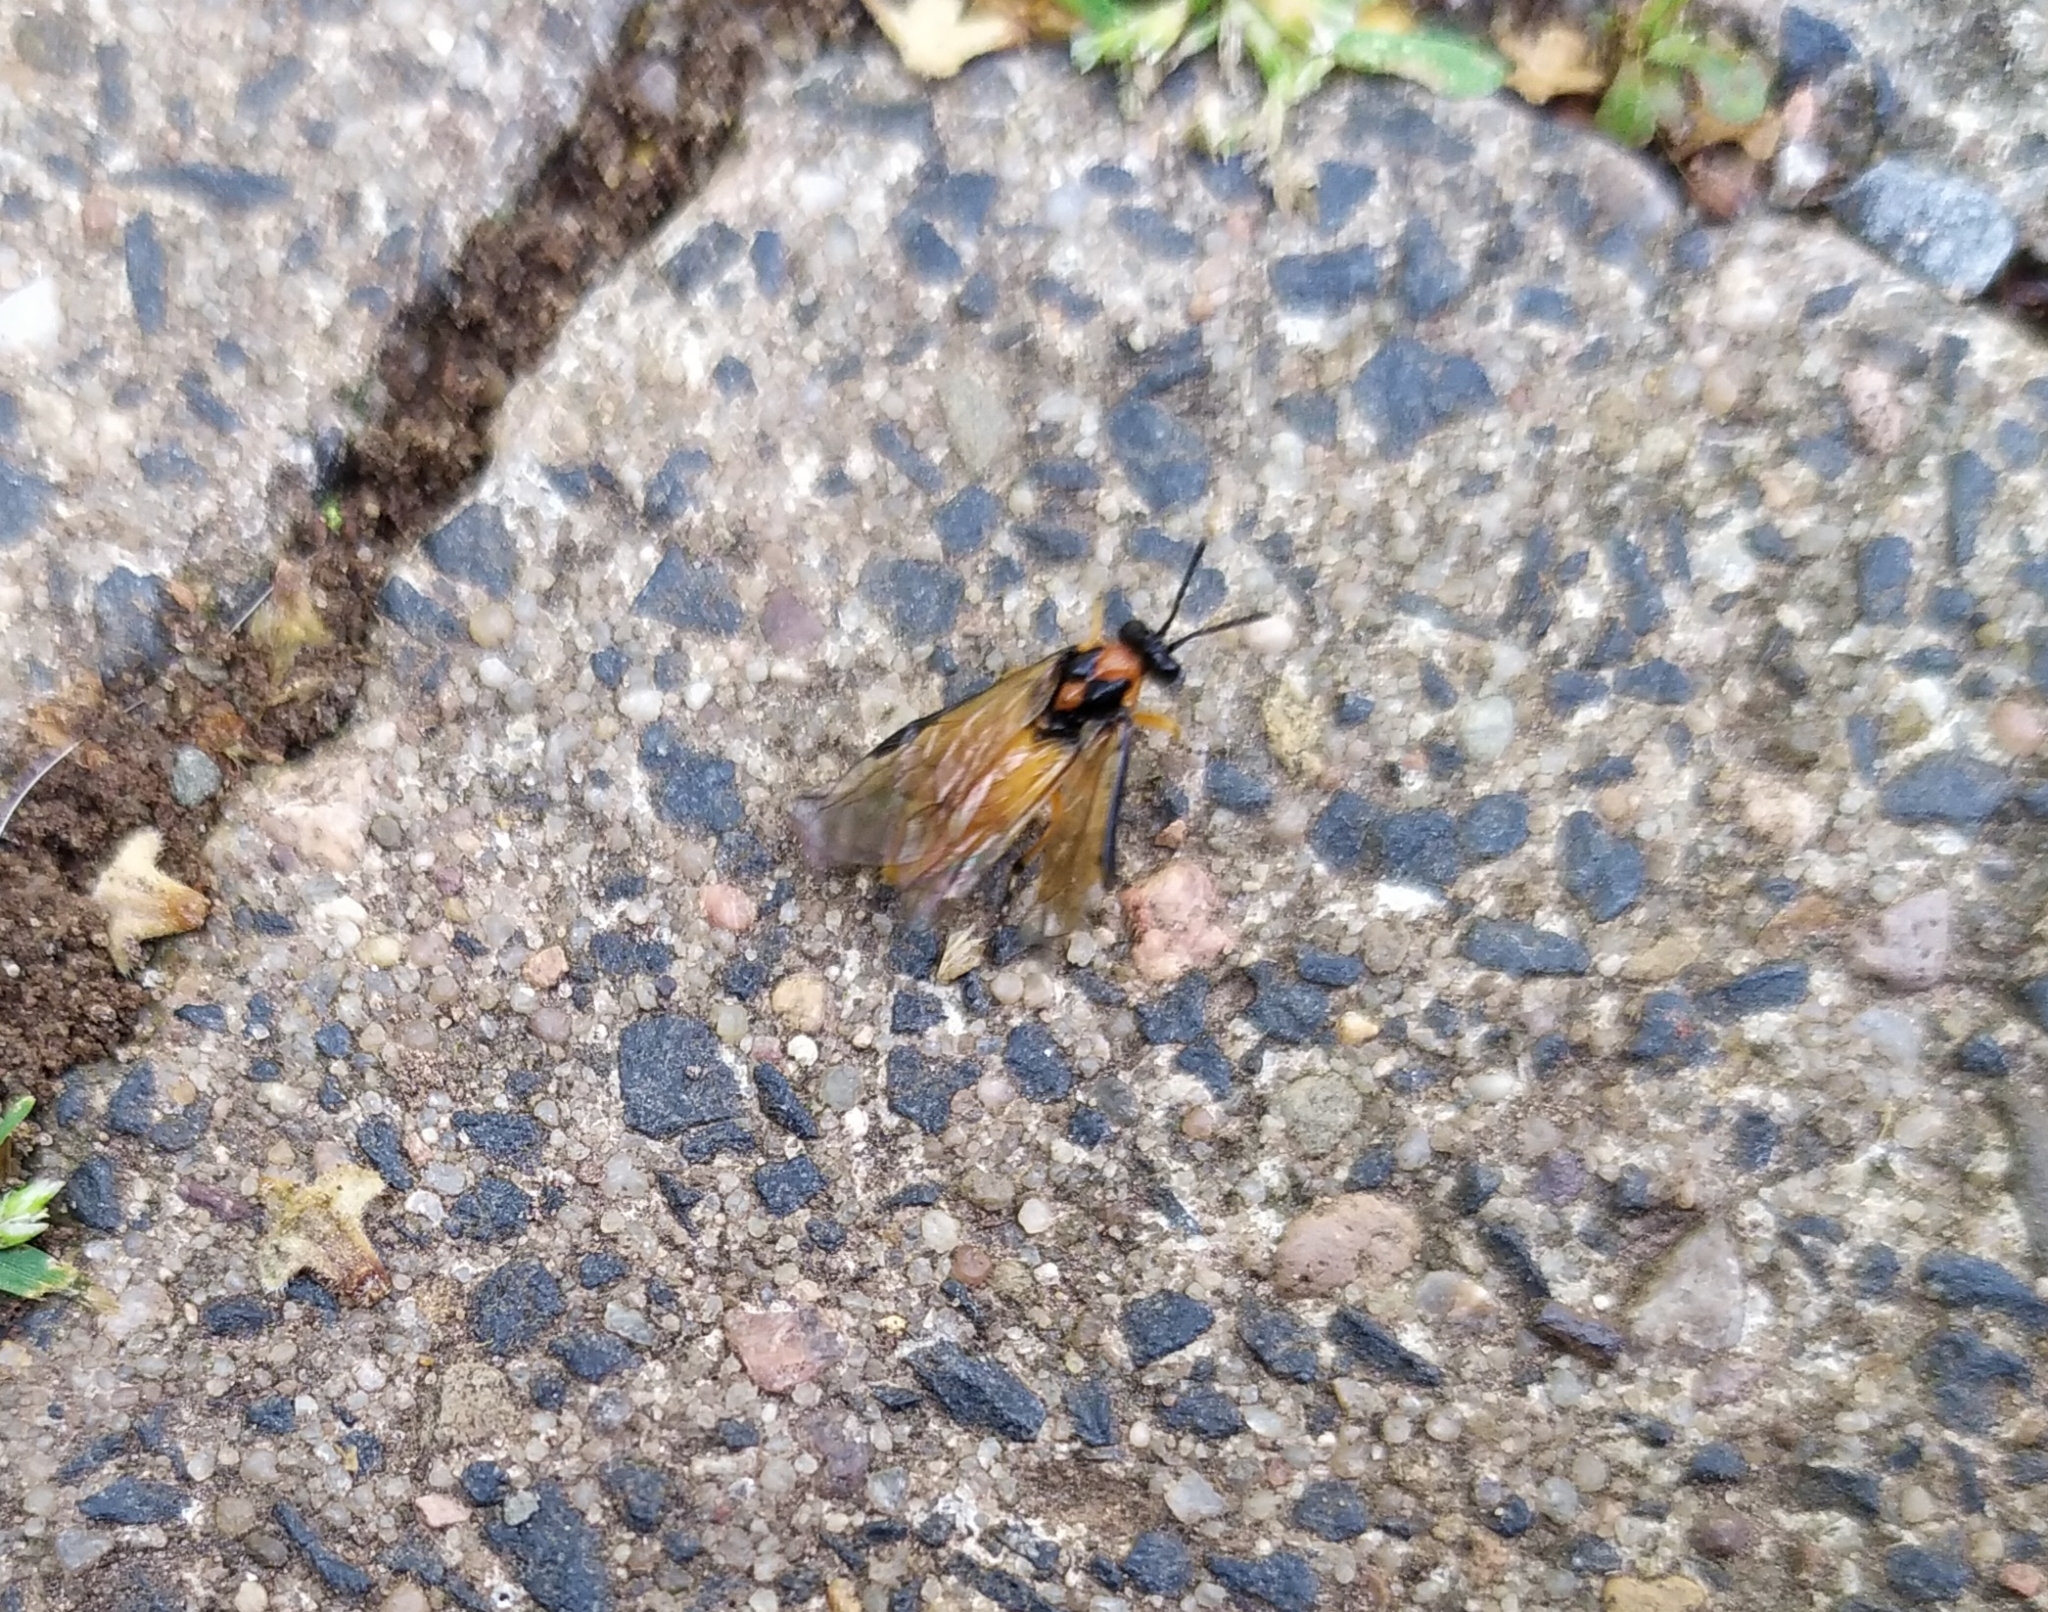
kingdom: Animalia
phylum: Arthropoda
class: Insecta
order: Hymenoptera
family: Tenthredinidae
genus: Athalia
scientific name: Athalia rosae
